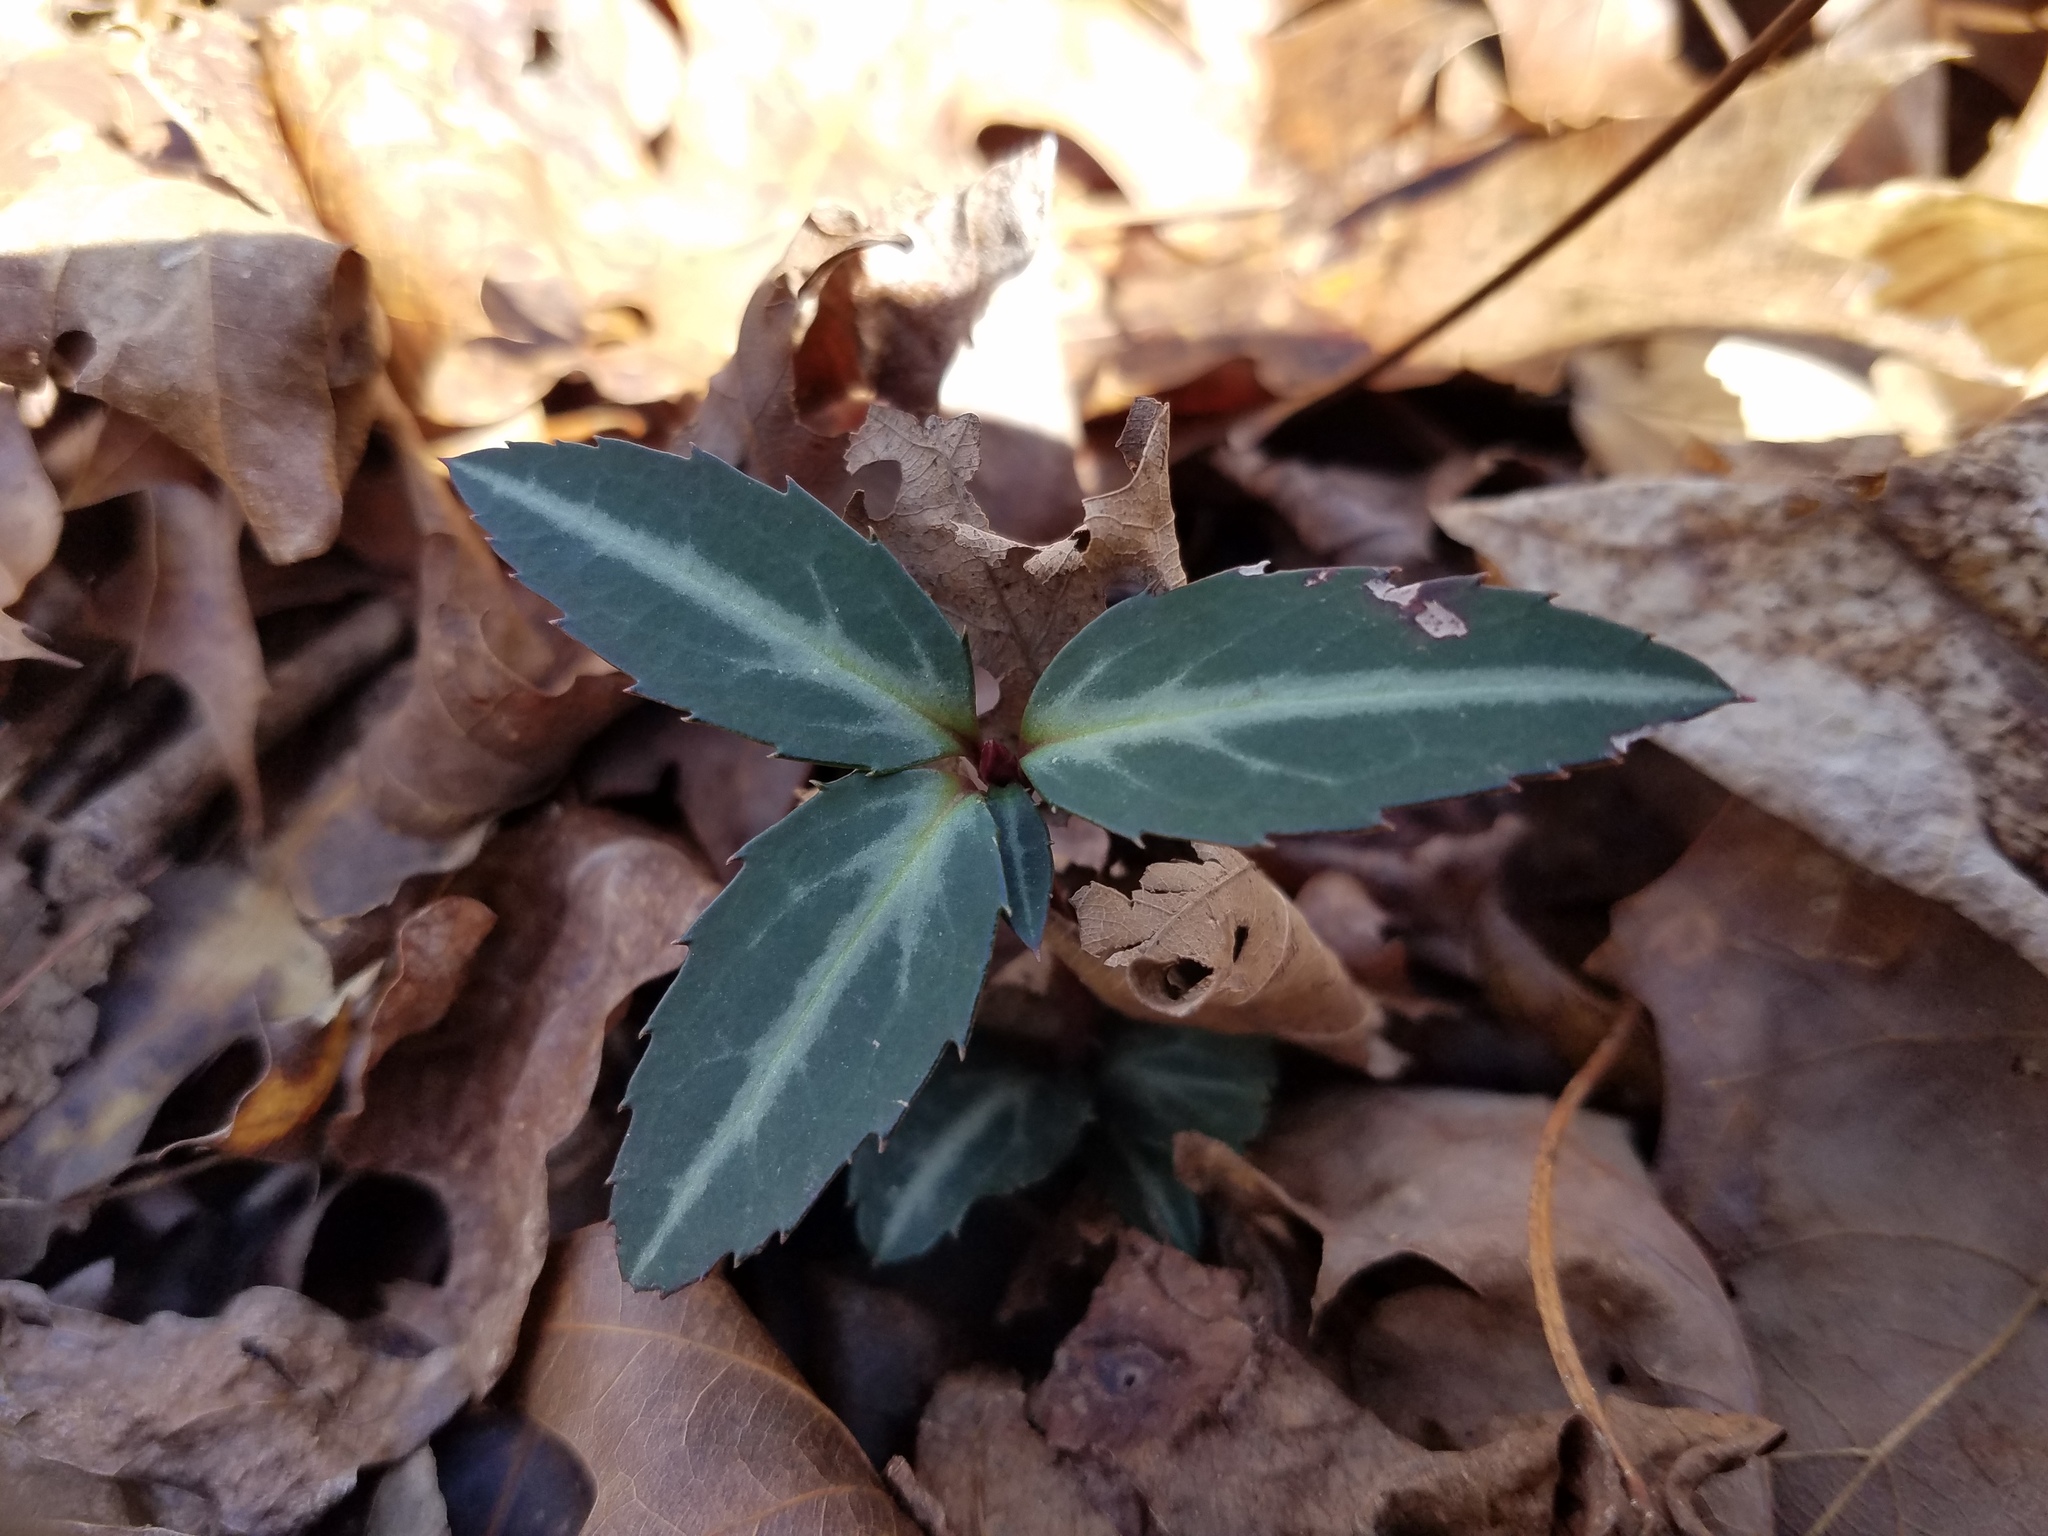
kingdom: Plantae
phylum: Tracheophyta
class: Magnoliopsida
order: Ericales
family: Ericaceae
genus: Chimaphila
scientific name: Chimaphila maculata
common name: Spotted pipsissewa
